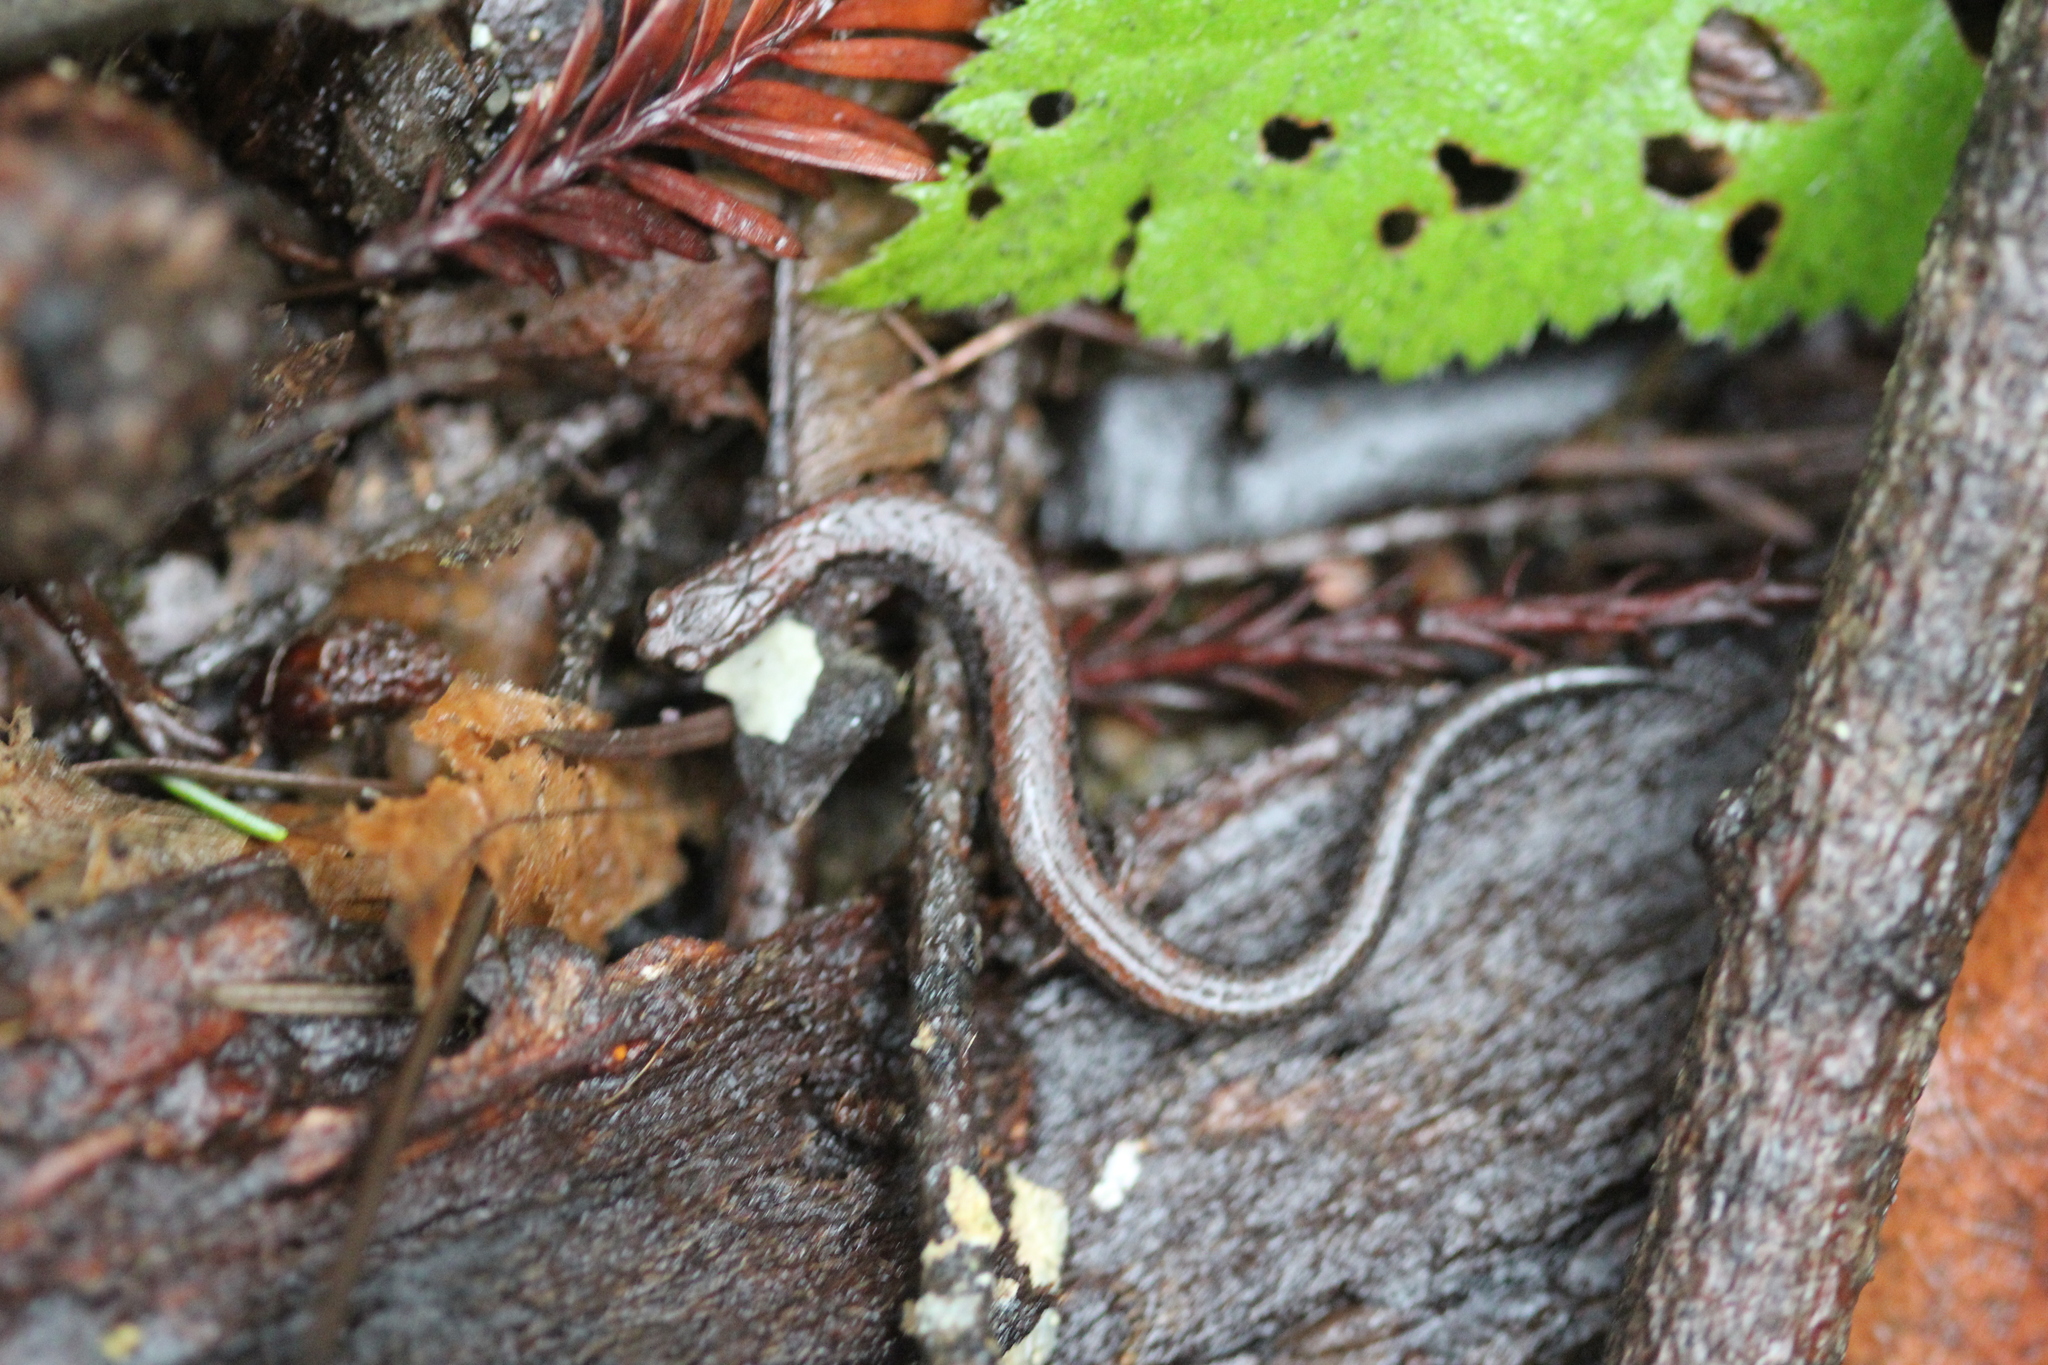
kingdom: Animalia
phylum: Chordata
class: Amphibia
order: Caudata
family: Plethodontidae
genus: Batrachoseps
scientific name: Batrachoseps attenuatus
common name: California slender salamander
